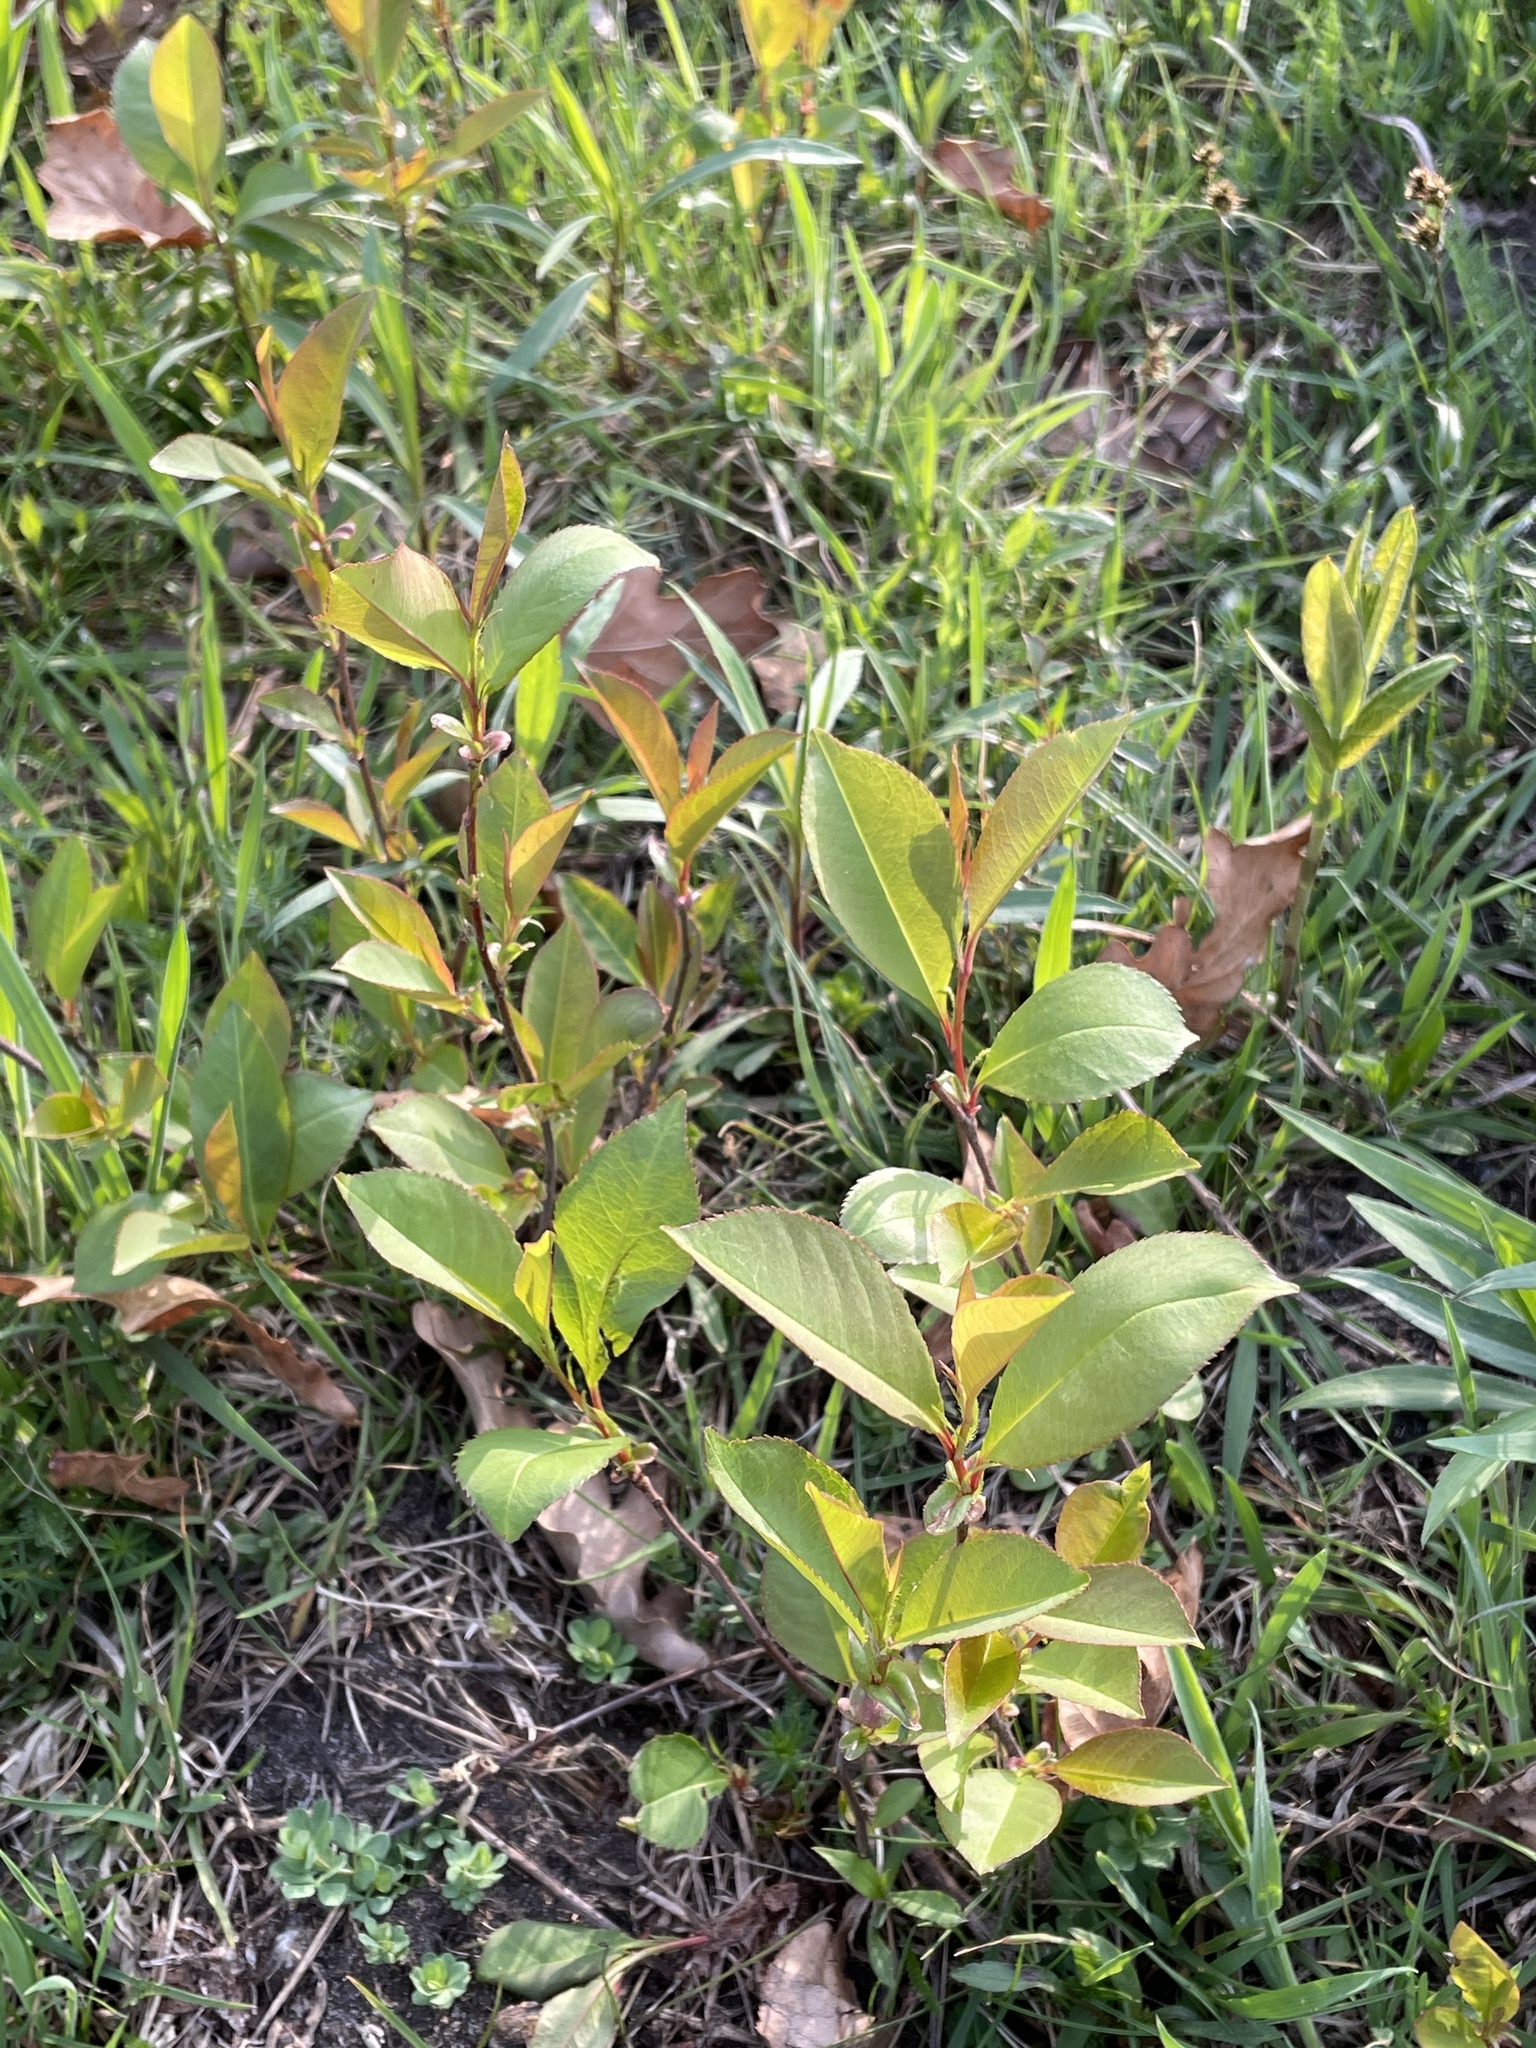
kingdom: Plantae
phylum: Tracheophyta
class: Magnoliopsida
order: Rosales
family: Rosaceae
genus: Prunus
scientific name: Prunus serotina
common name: Black cherry
